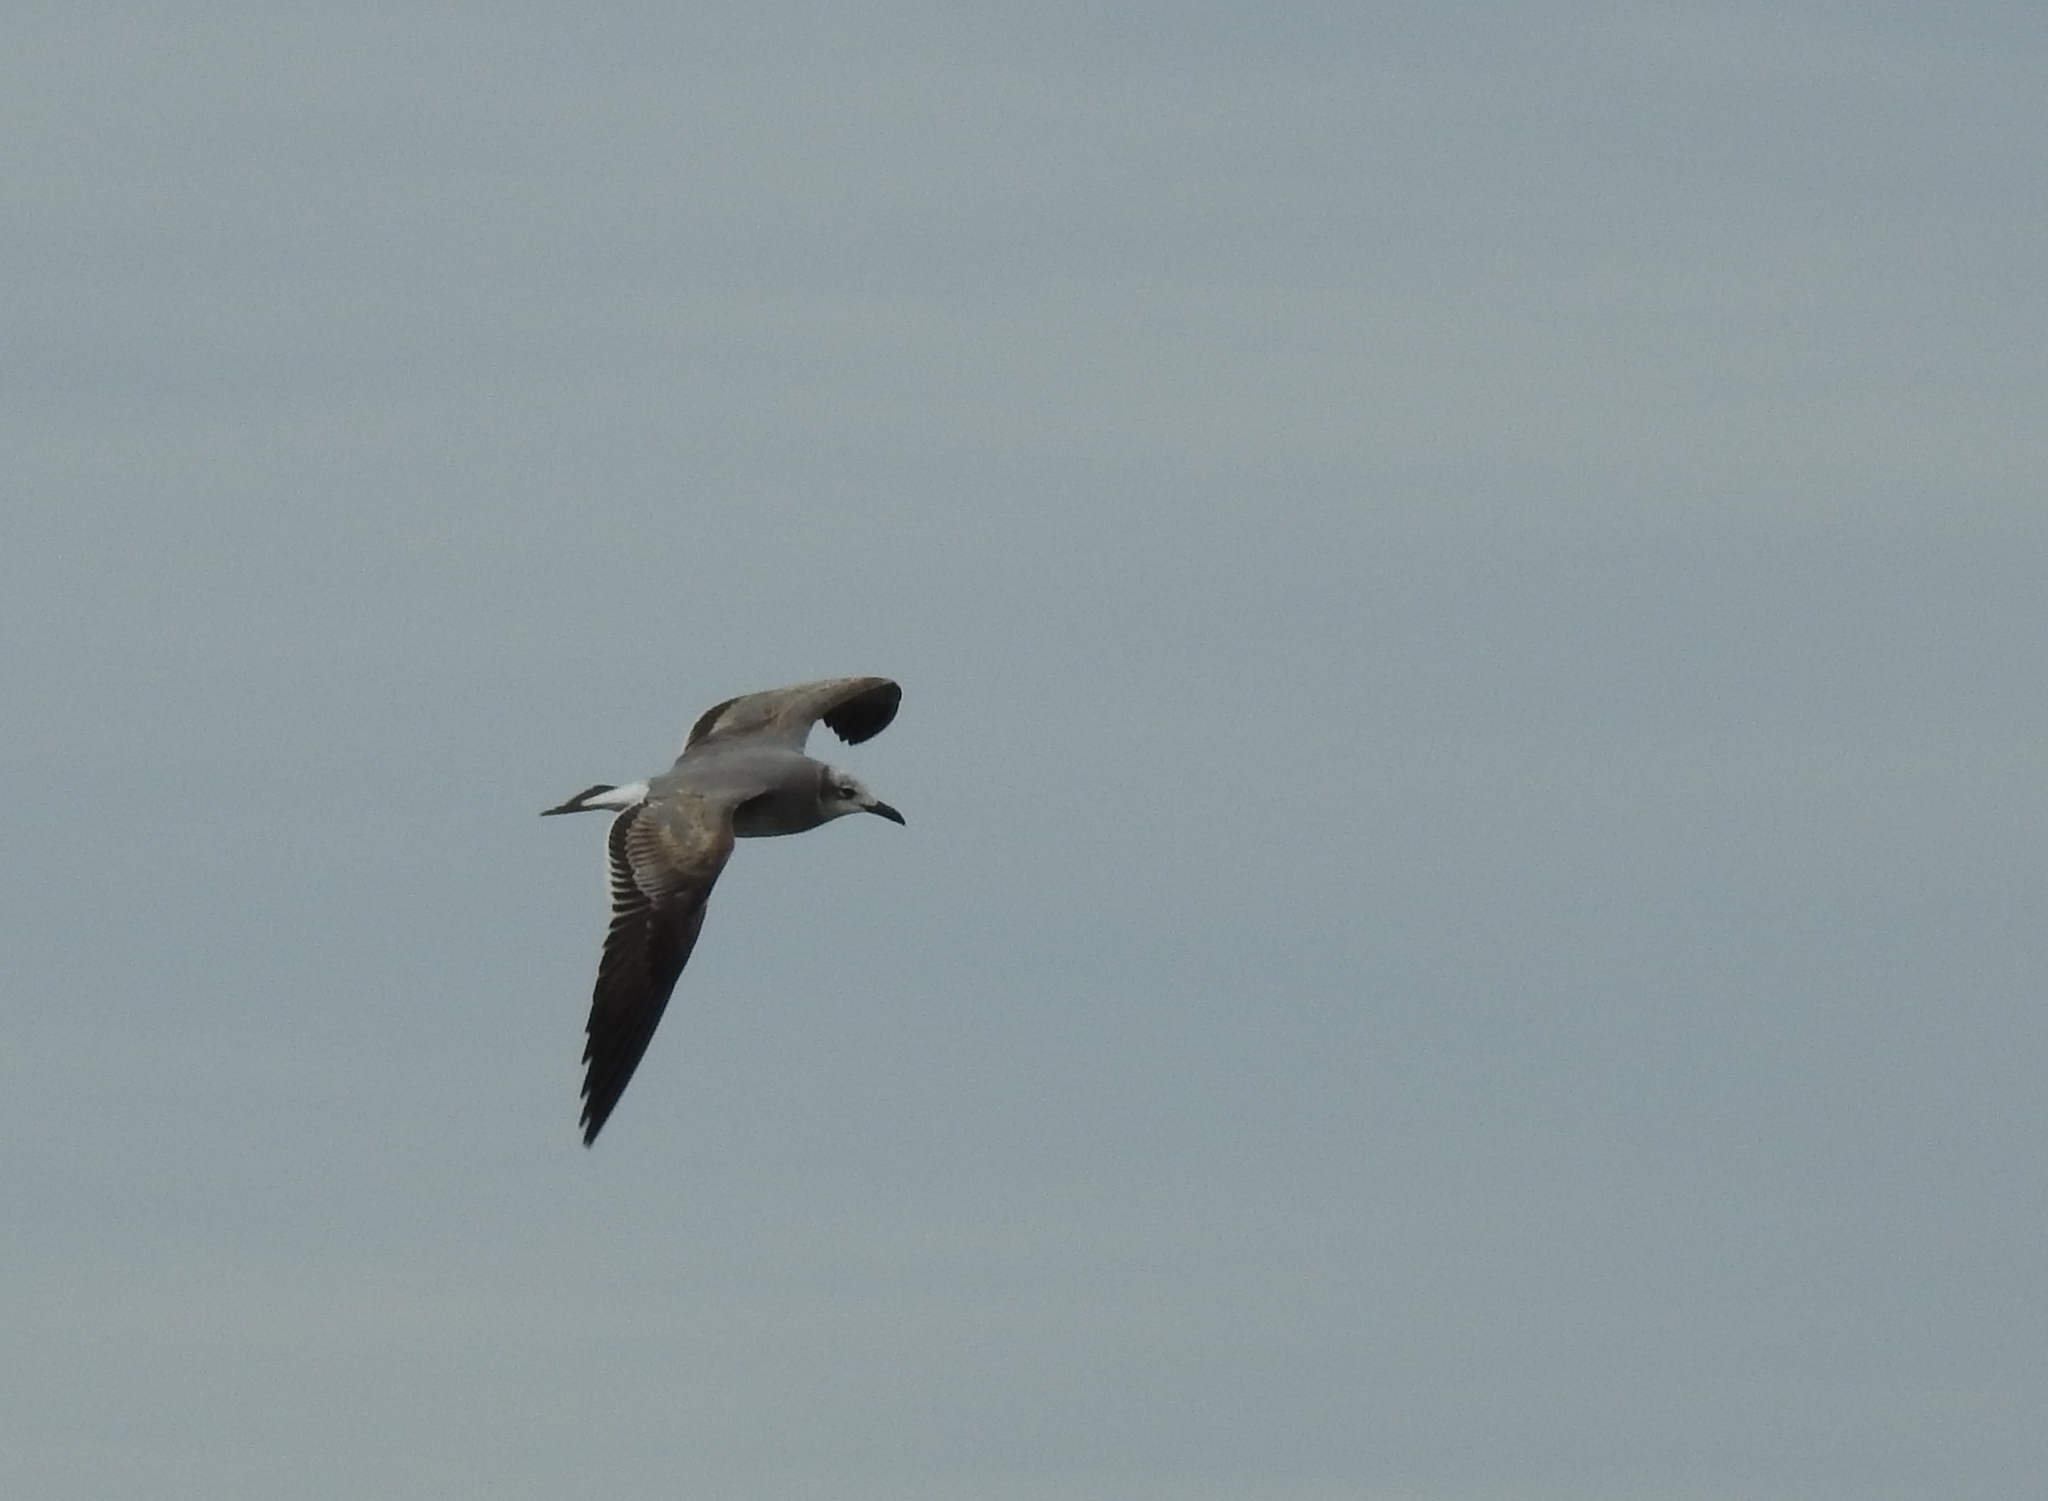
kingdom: Animalia
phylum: Chordata
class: Aves
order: Charadriiformes
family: Laridae
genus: Leucophaeus
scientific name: Leucophaeus atricilla
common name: Laughing gull
